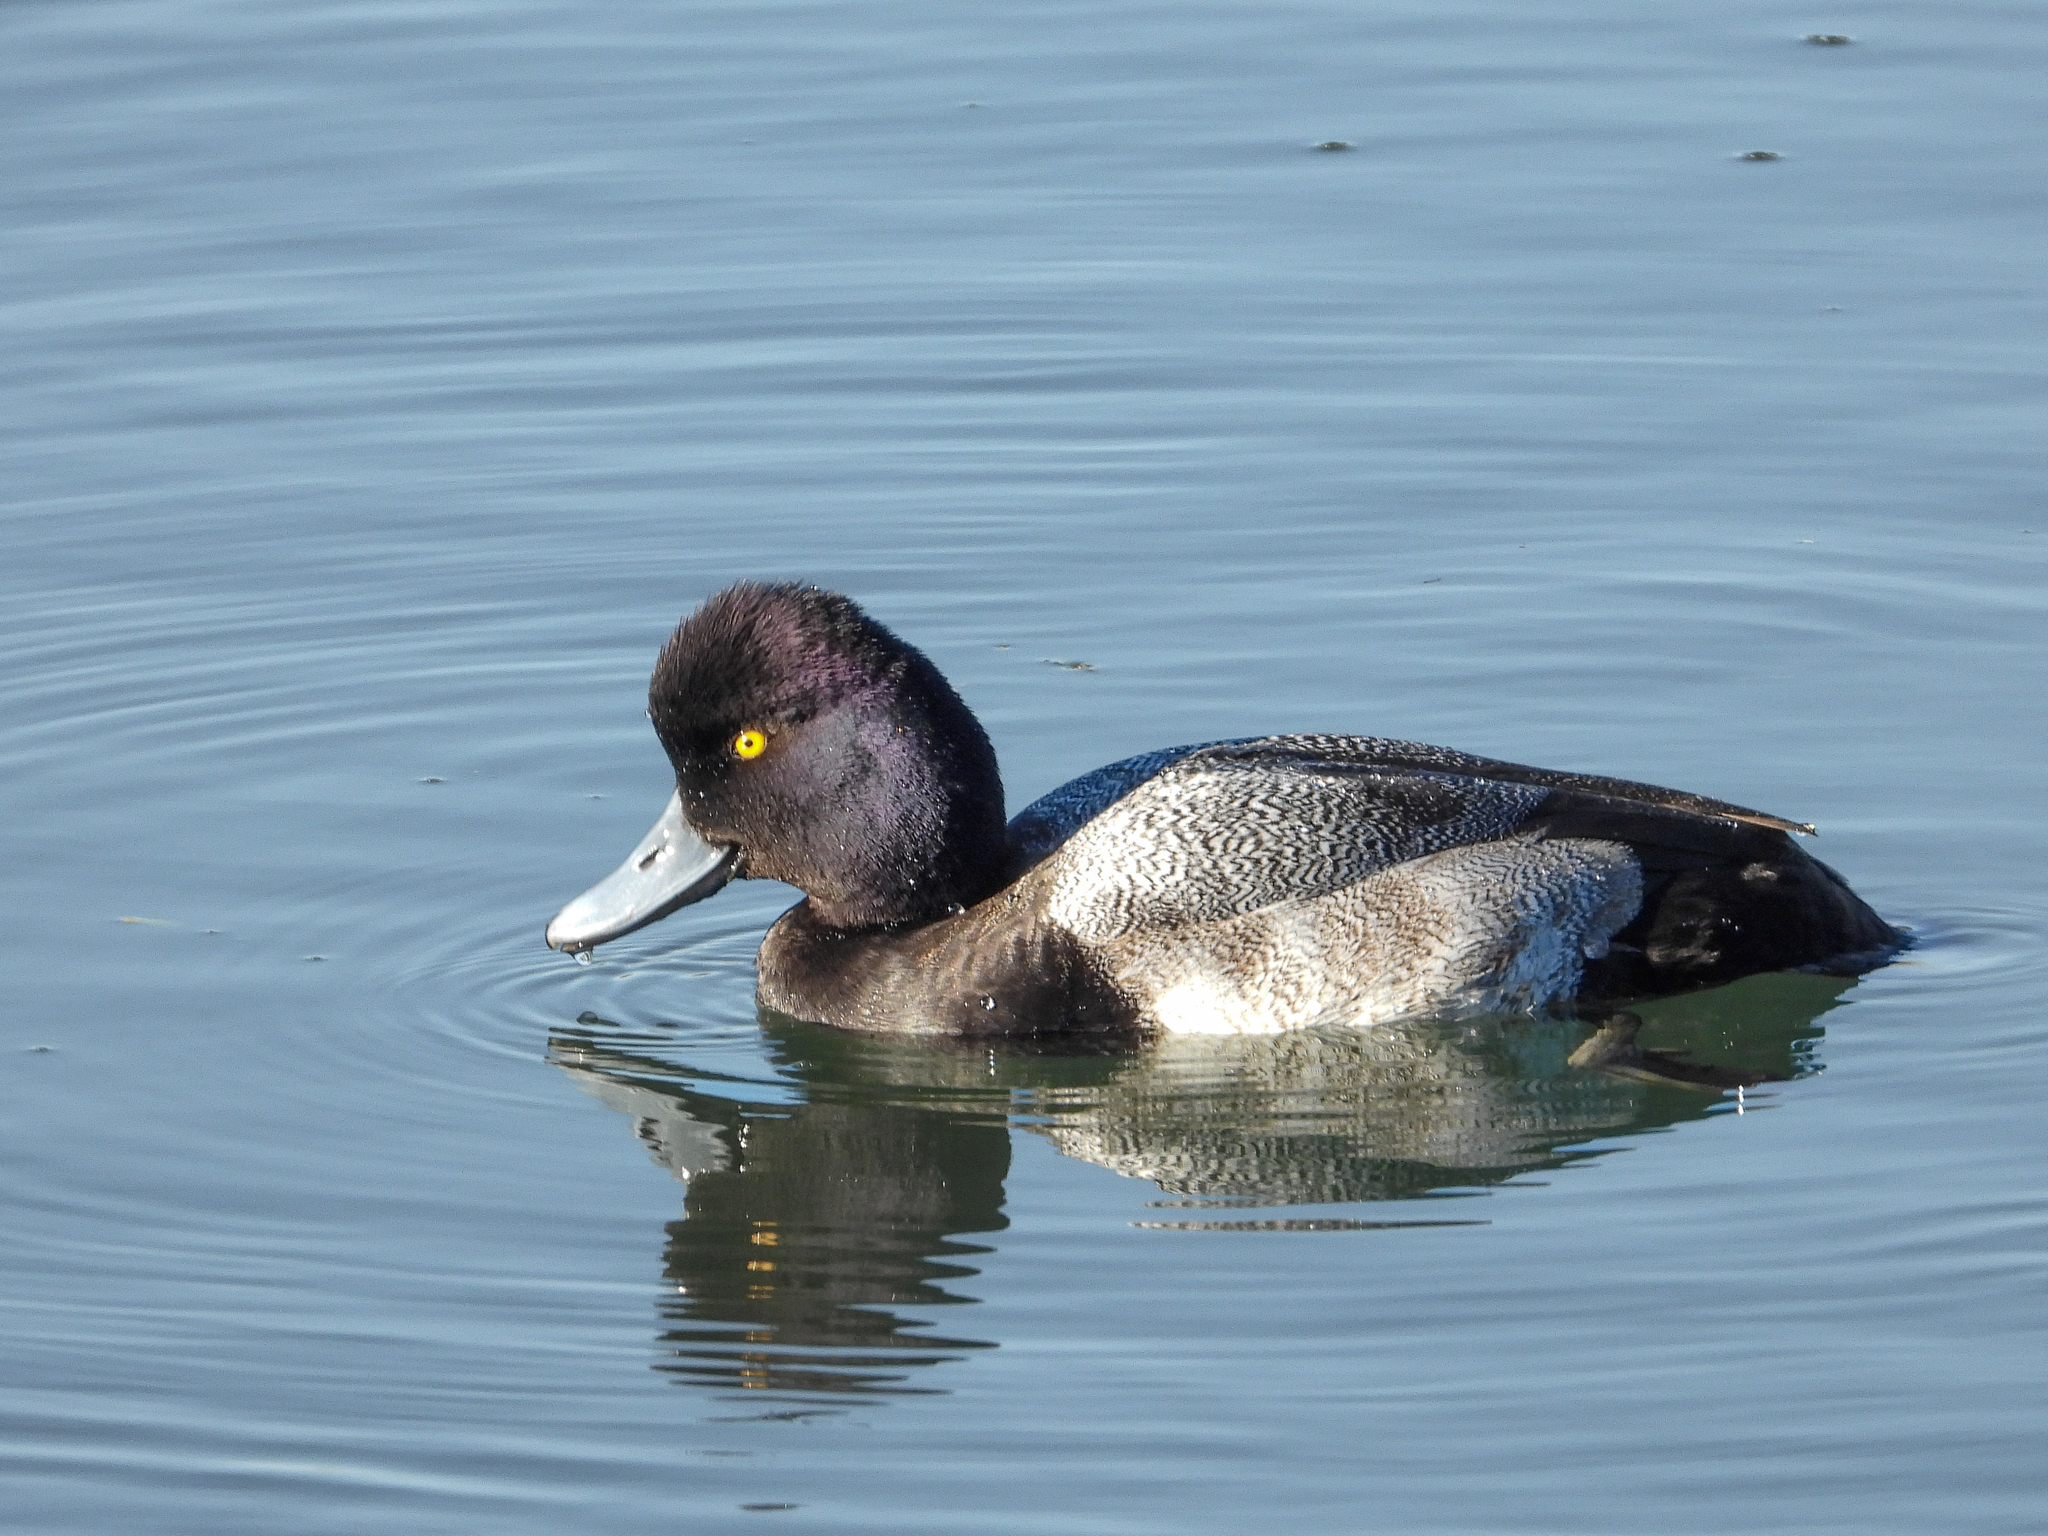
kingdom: Animalia
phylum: Chordata
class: Aves
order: Anseriformes
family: Anatidae
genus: Aythya
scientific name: Aythya affinis
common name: Lesser scaup
